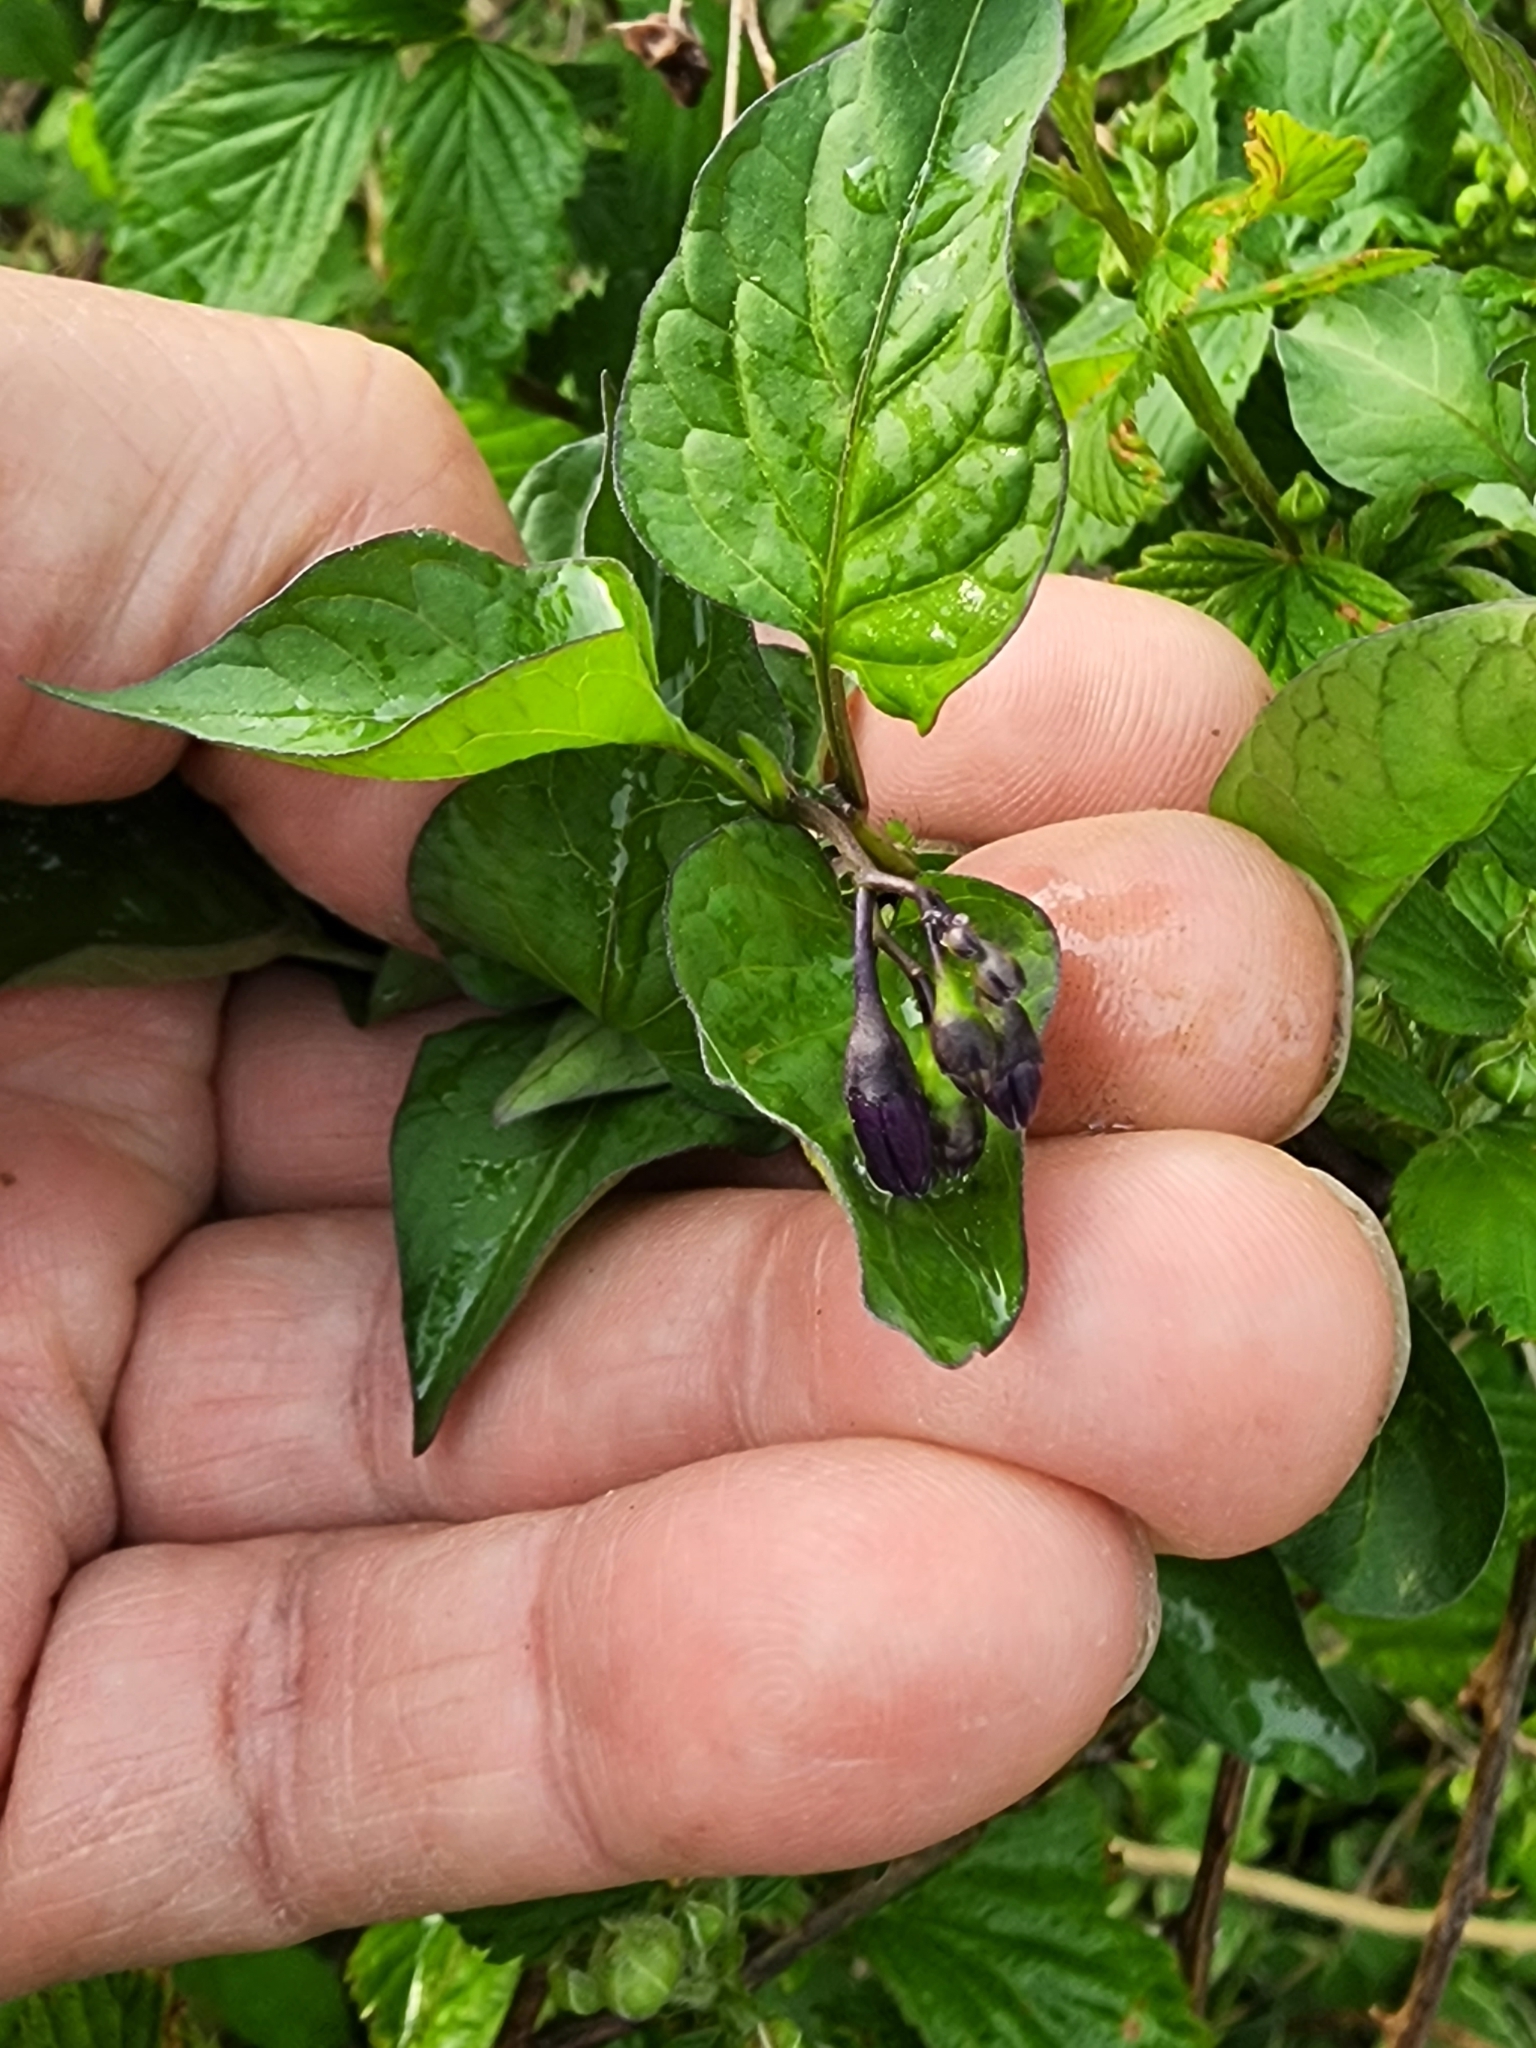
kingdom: Plantae
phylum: Tracheophyta
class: Magnoliopsida
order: Solanales
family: Solanaceae
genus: Solanum
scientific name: Solanum dulcamara
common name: Climbing nightshade
